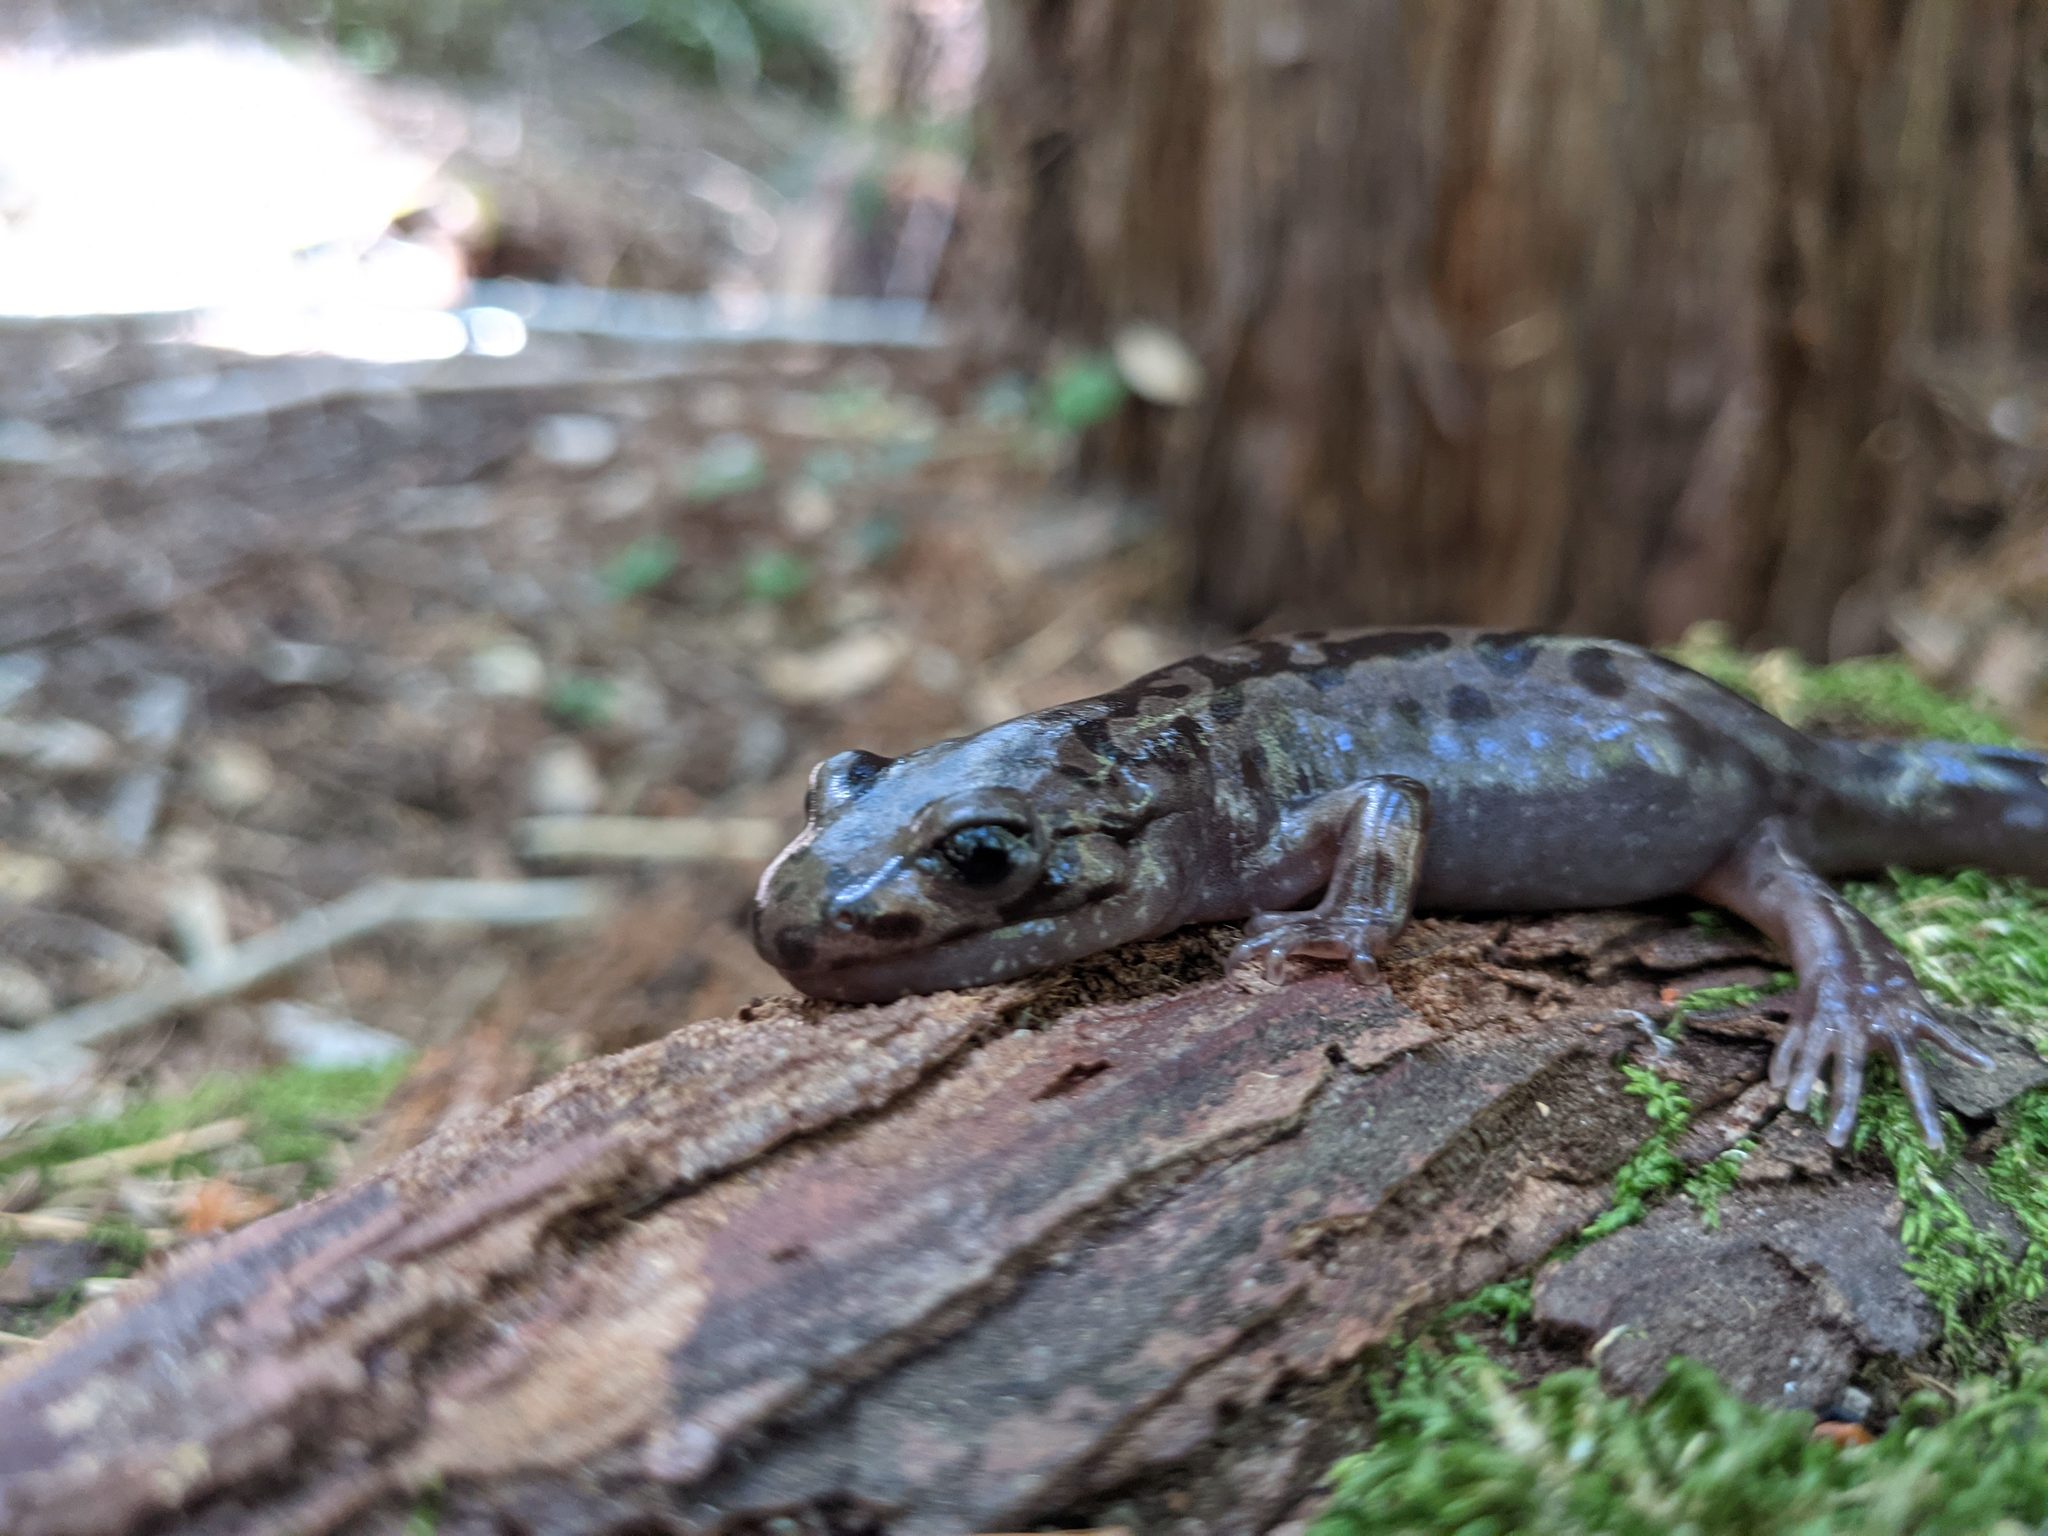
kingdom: Animalia
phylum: Chordata
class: Amphibia
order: Caudata
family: Ambystomatidae
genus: Dicamptodon
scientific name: Dicamptodon tenebrosus
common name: Coastal giant salamander
